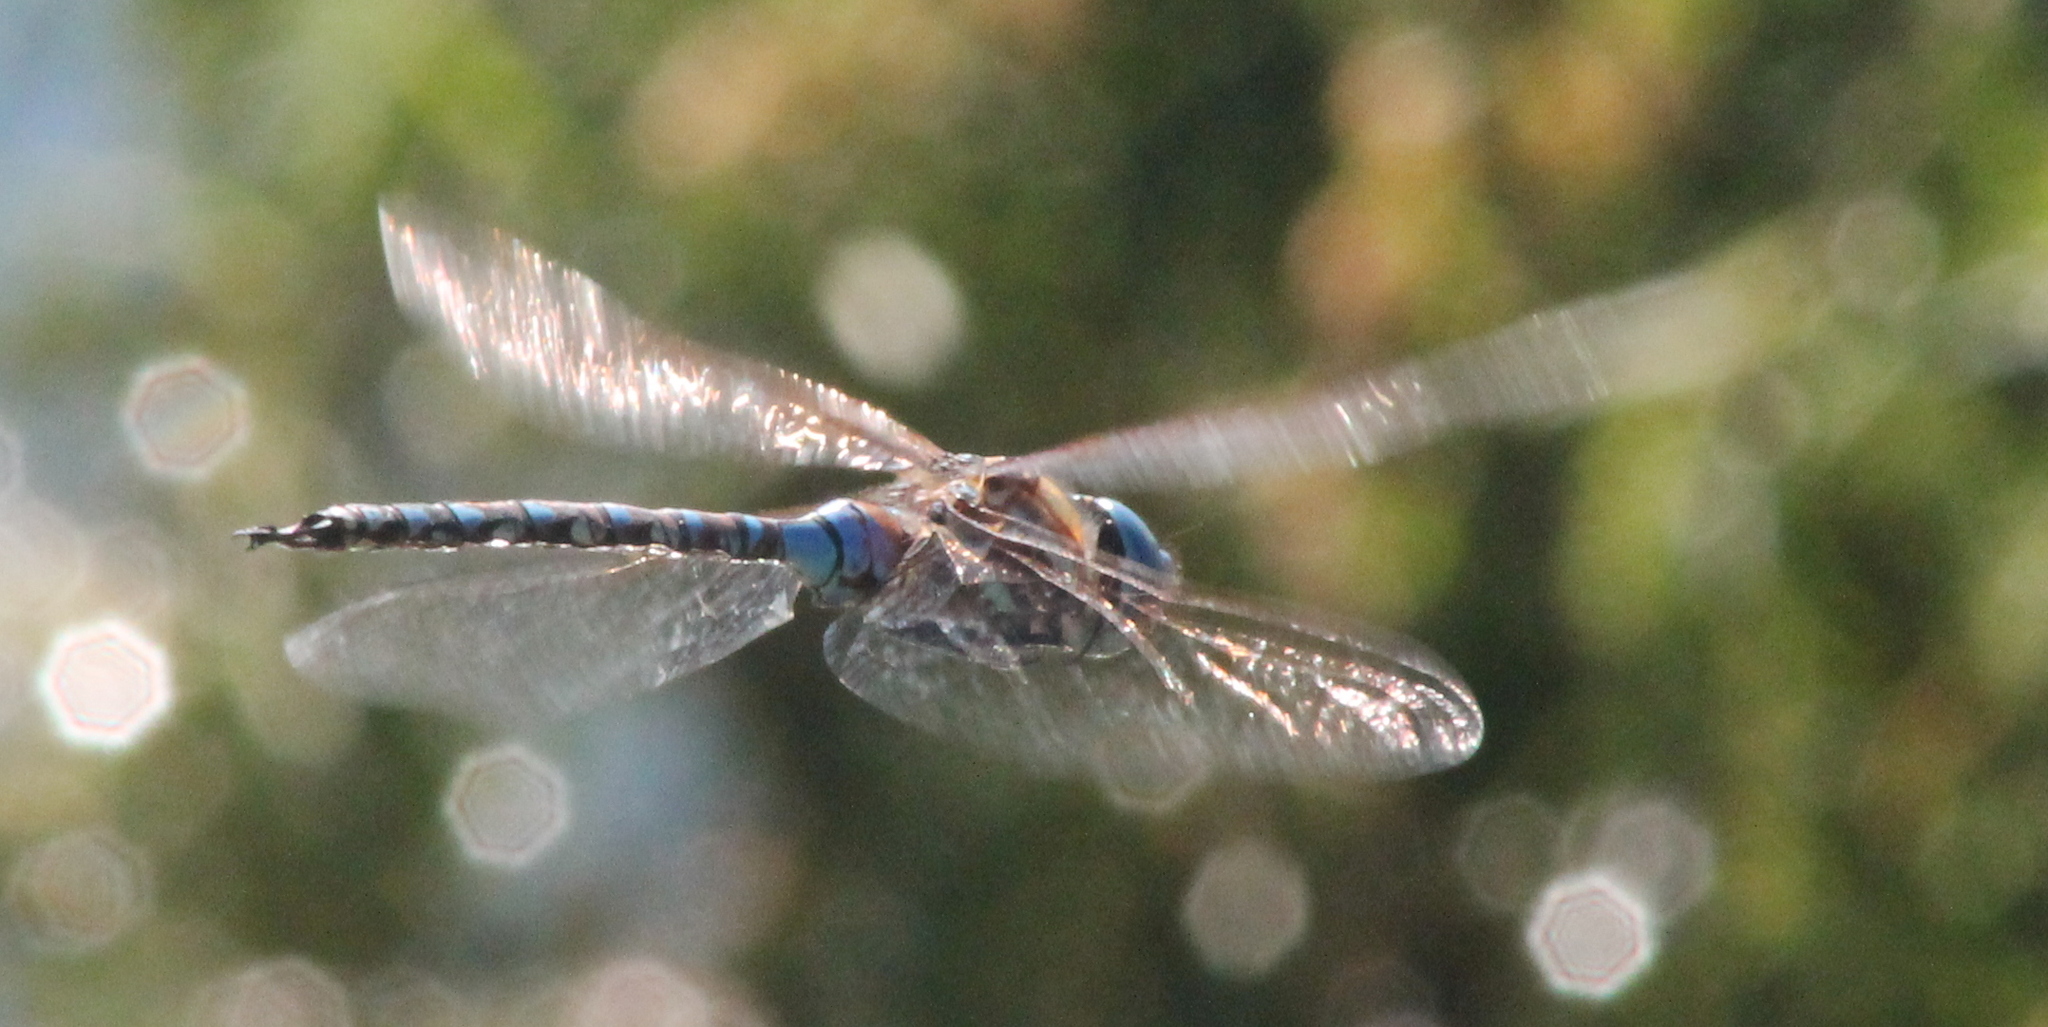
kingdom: Animalia
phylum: Arthropoda
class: Insecta
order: Odonata
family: Aeshnidae
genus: Rhionaeschna
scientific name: Rhionaeschna multicolor
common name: Blue-eyed darner
